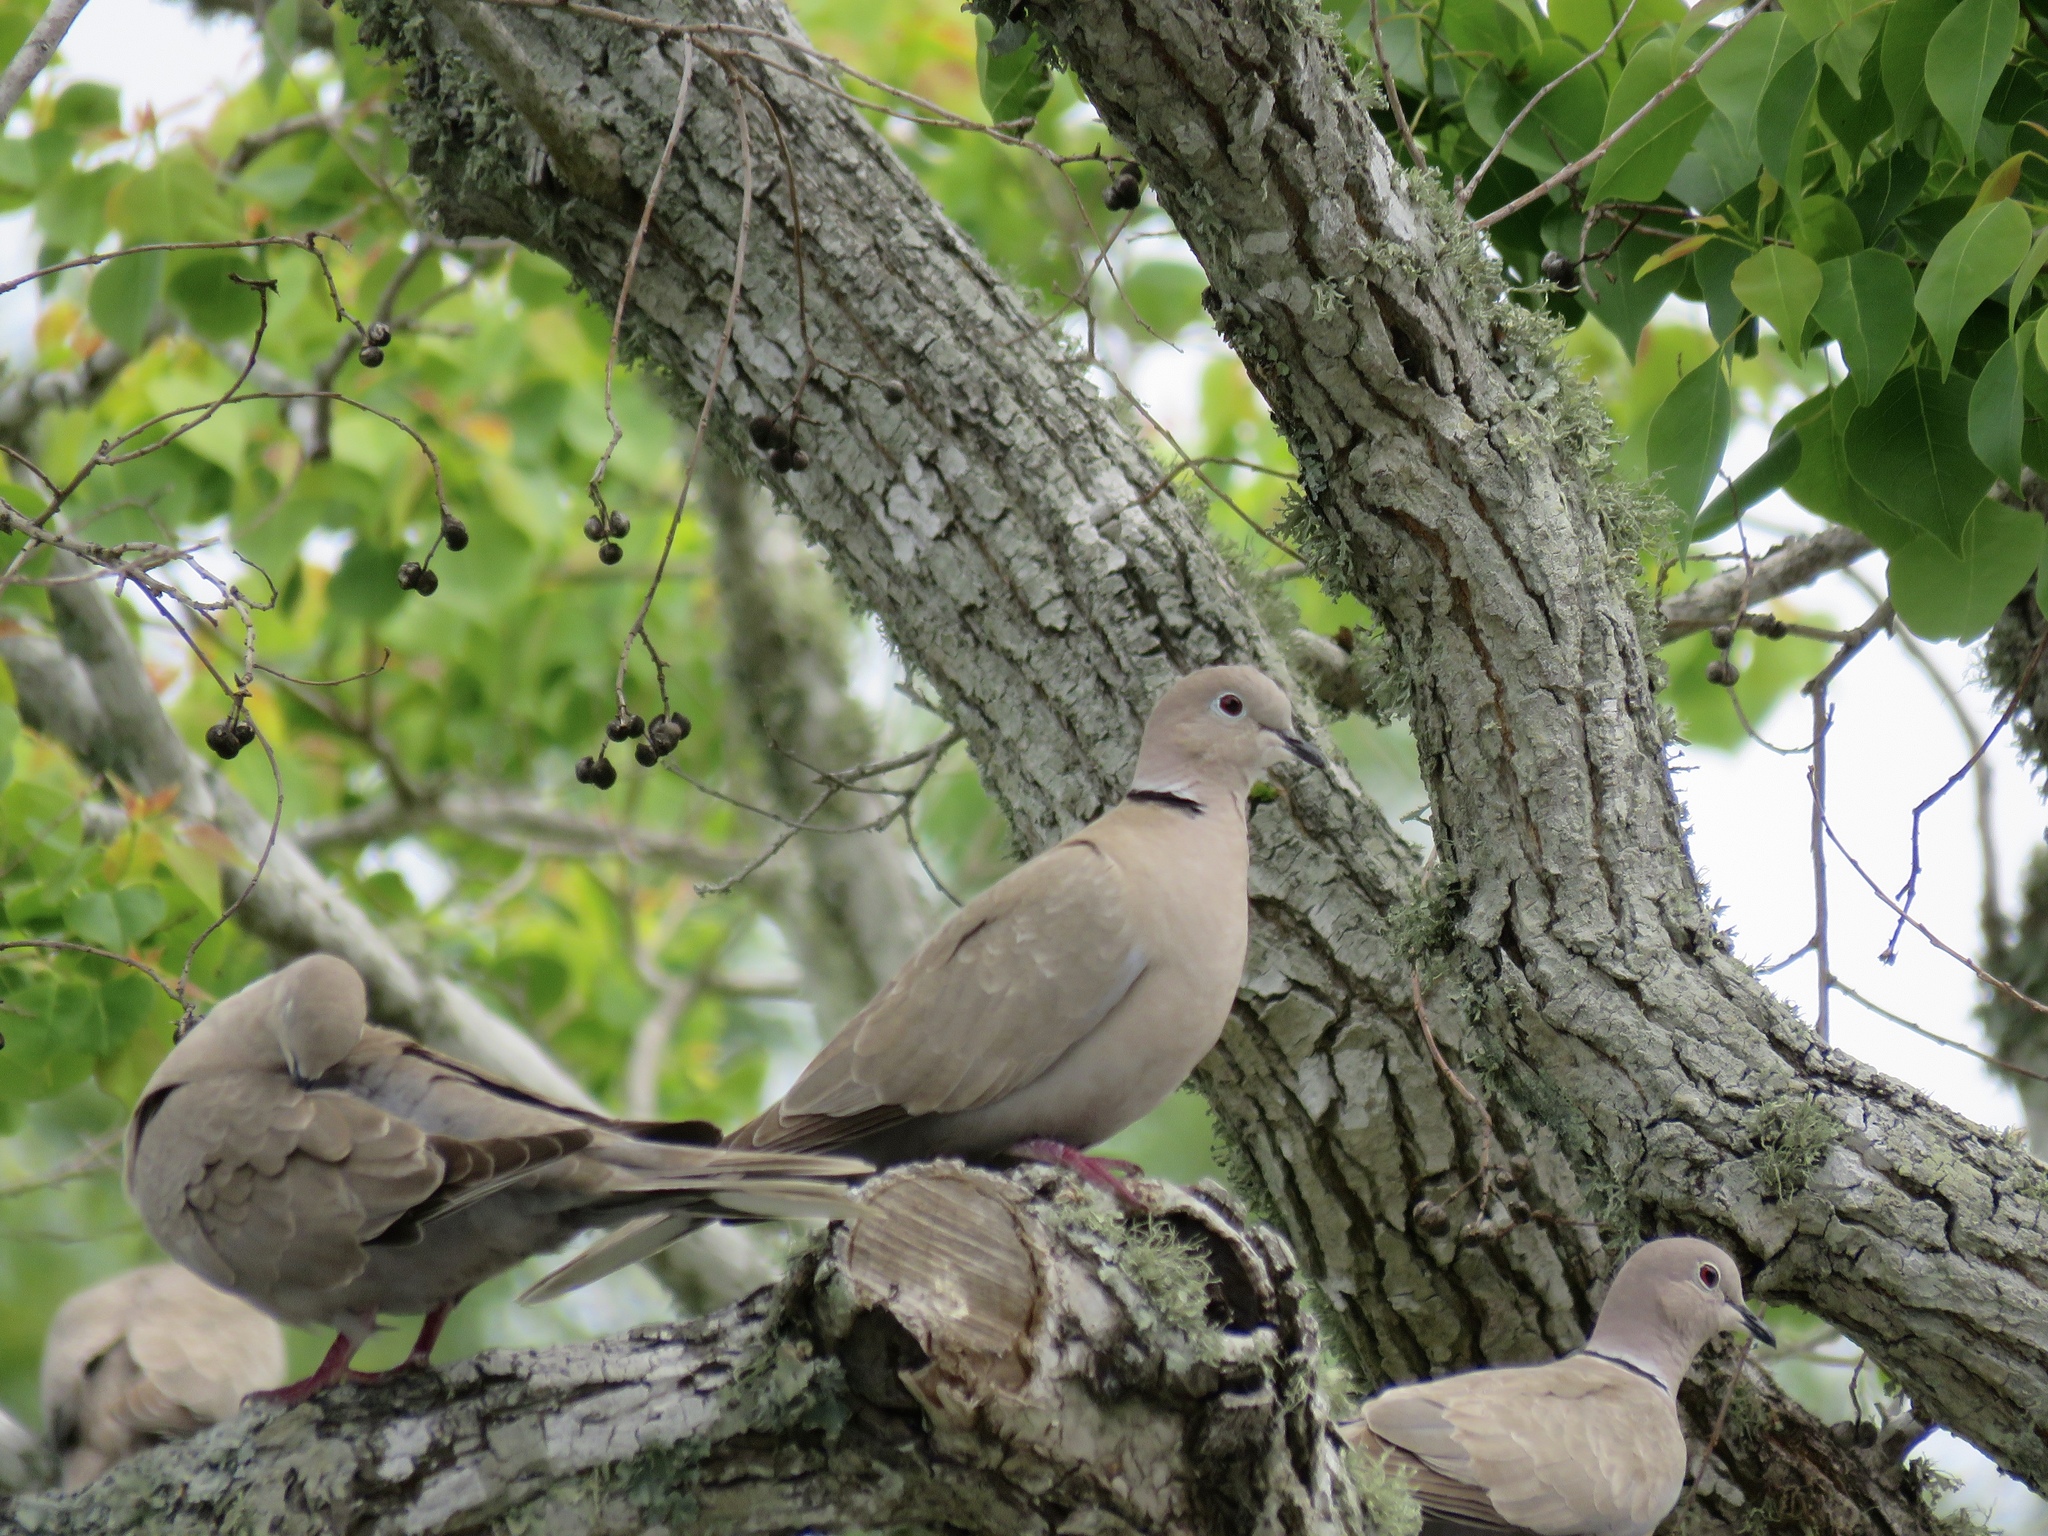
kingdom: Animalia
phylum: Chordata
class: Aves
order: Columbiformes
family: Columbidae
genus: Streptopelia
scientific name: Streptopelia decaocto
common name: Eurasian collared dove
